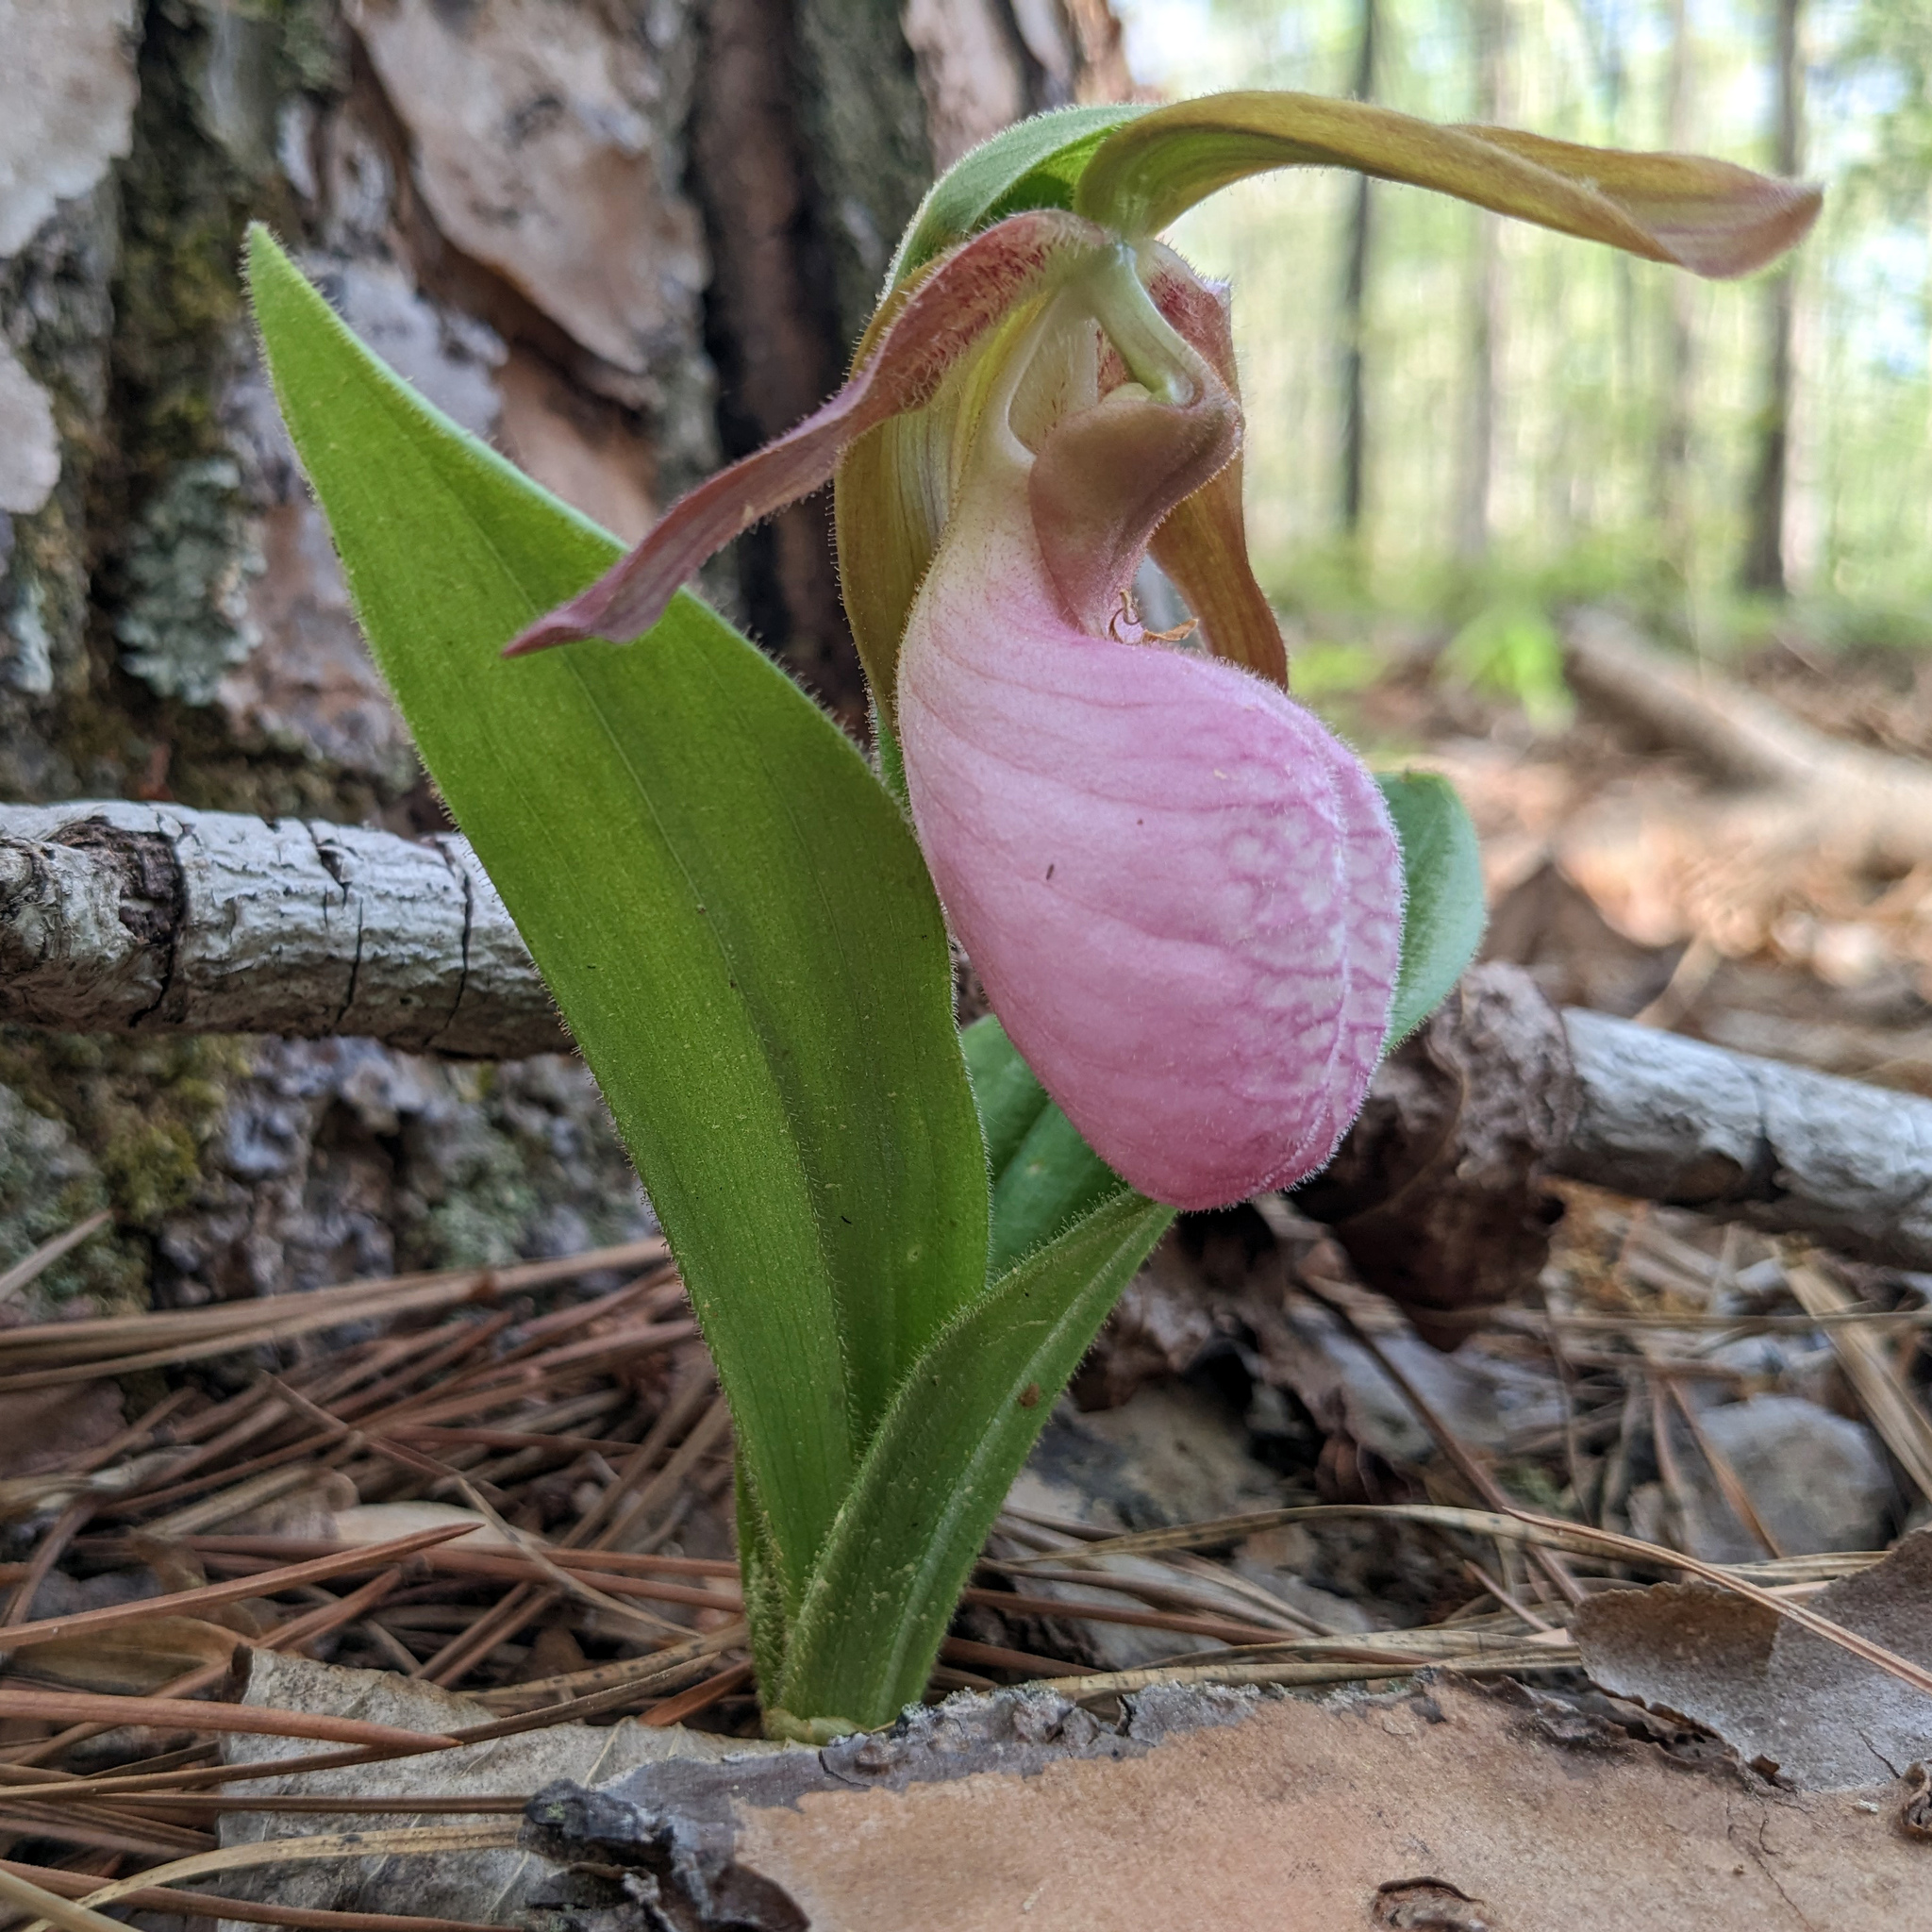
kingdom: Plantae
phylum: Tracheophyta
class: Liliopsida
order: Asparagales
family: Orchidaceae
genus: Cypripedium
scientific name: Cypripedium acaule
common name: Pink lady's-slipper
